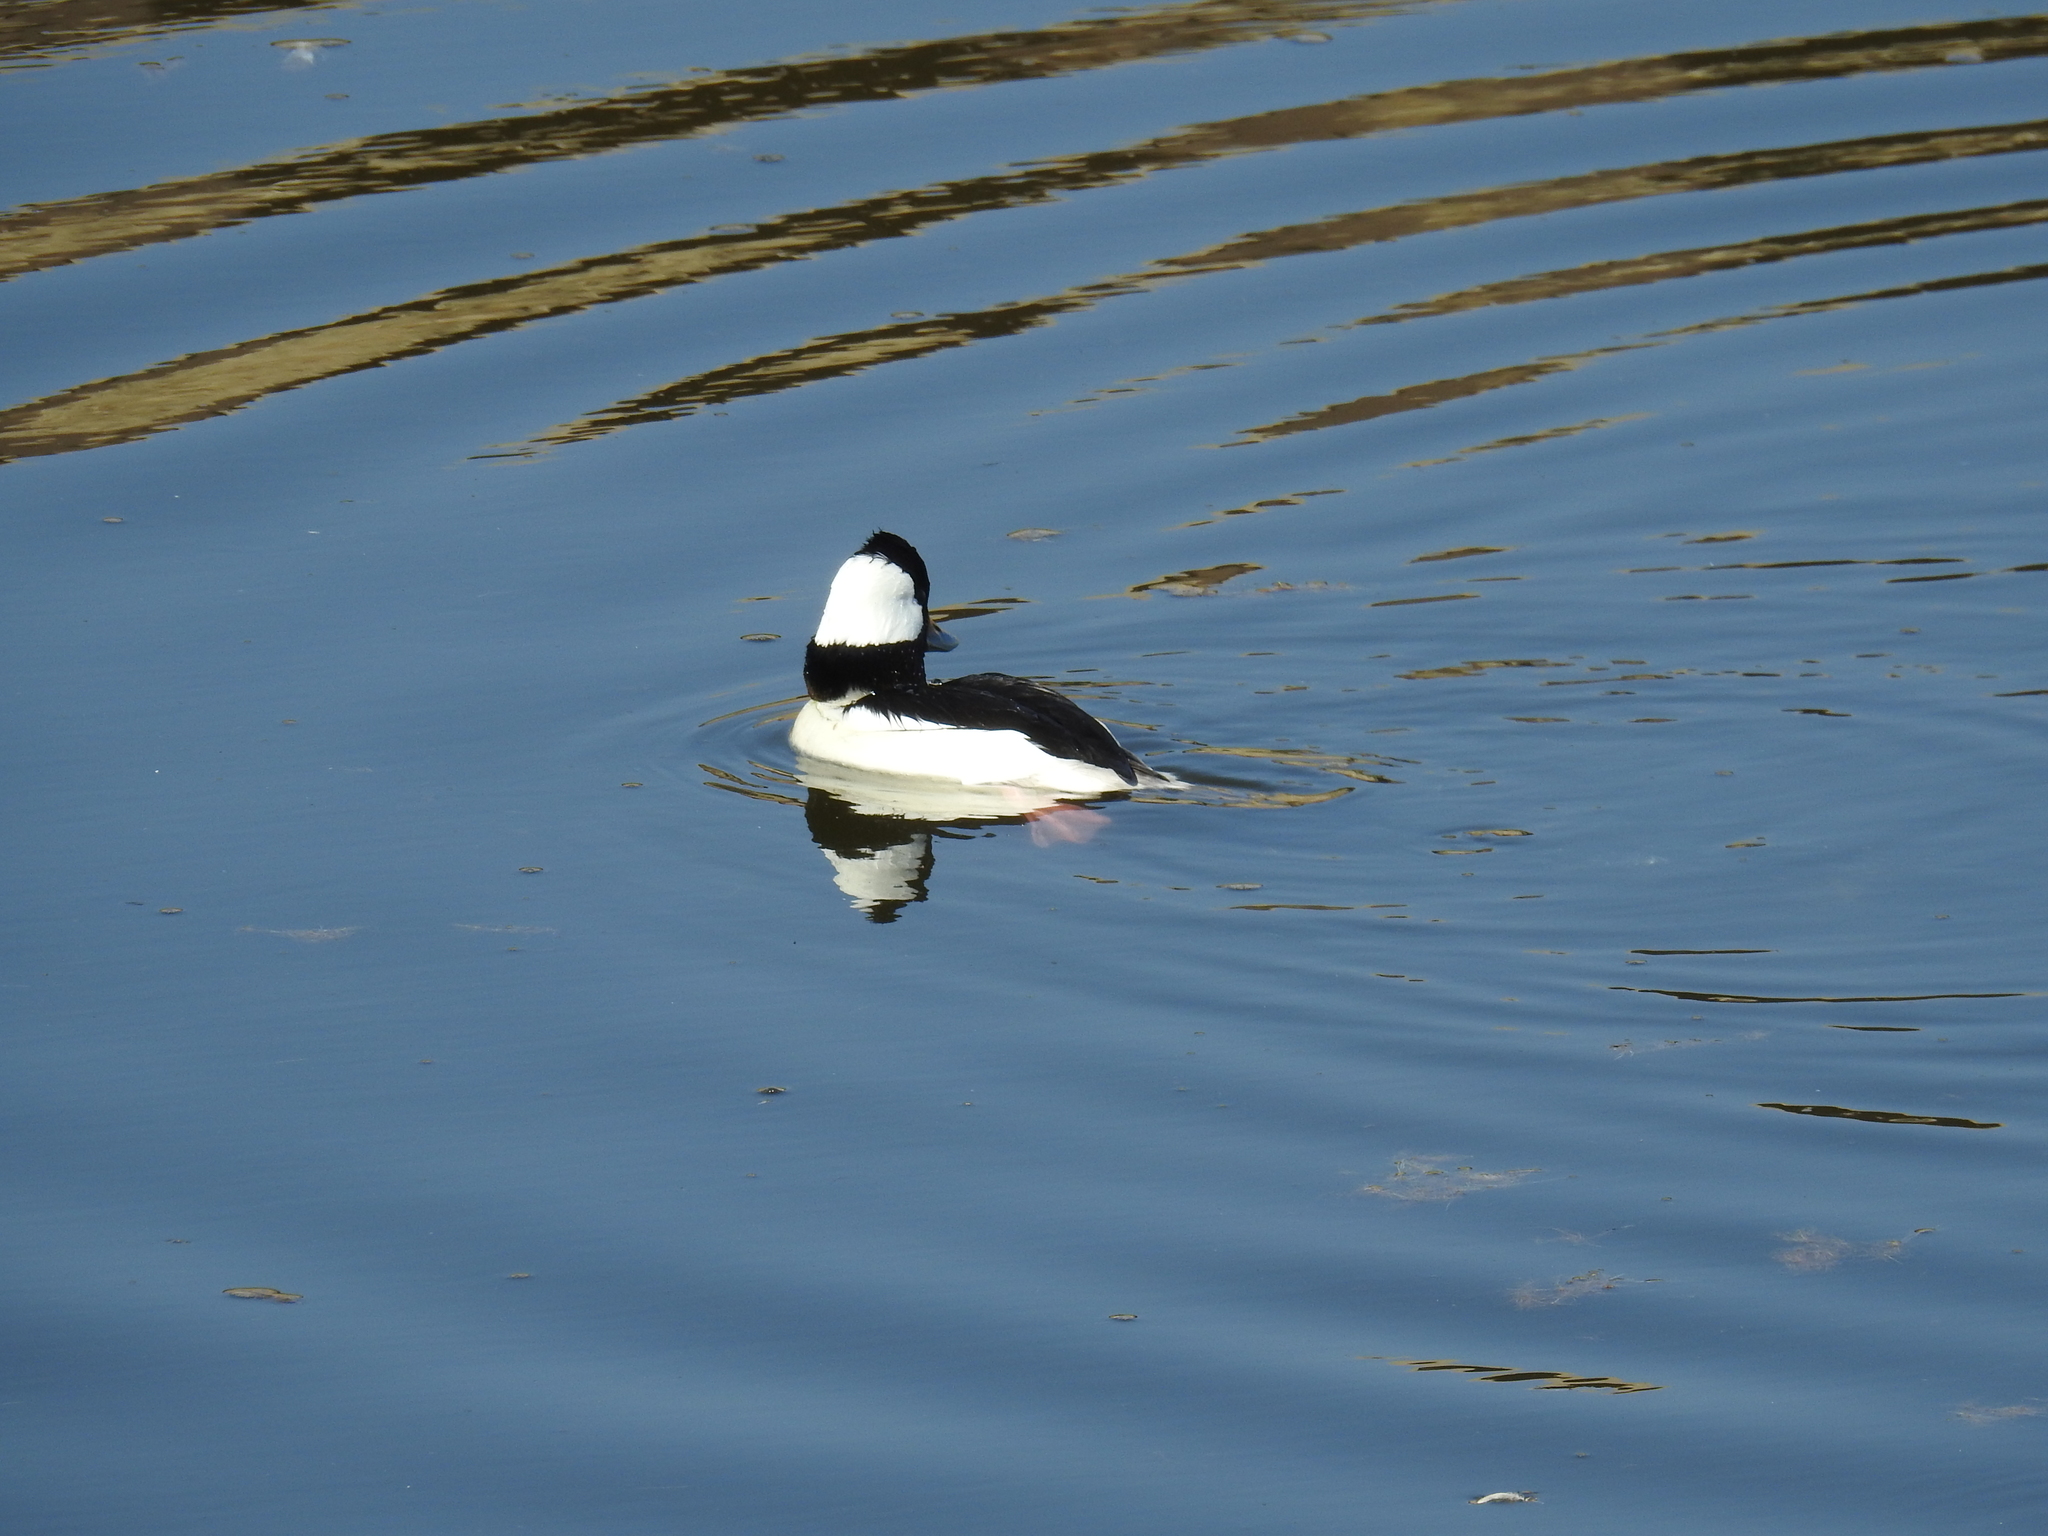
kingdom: Animalia
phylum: Chordata
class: Aves
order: Anseriformes
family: Anatidae
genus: Bucephala
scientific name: Bucephala albeola
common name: Bufflehead
